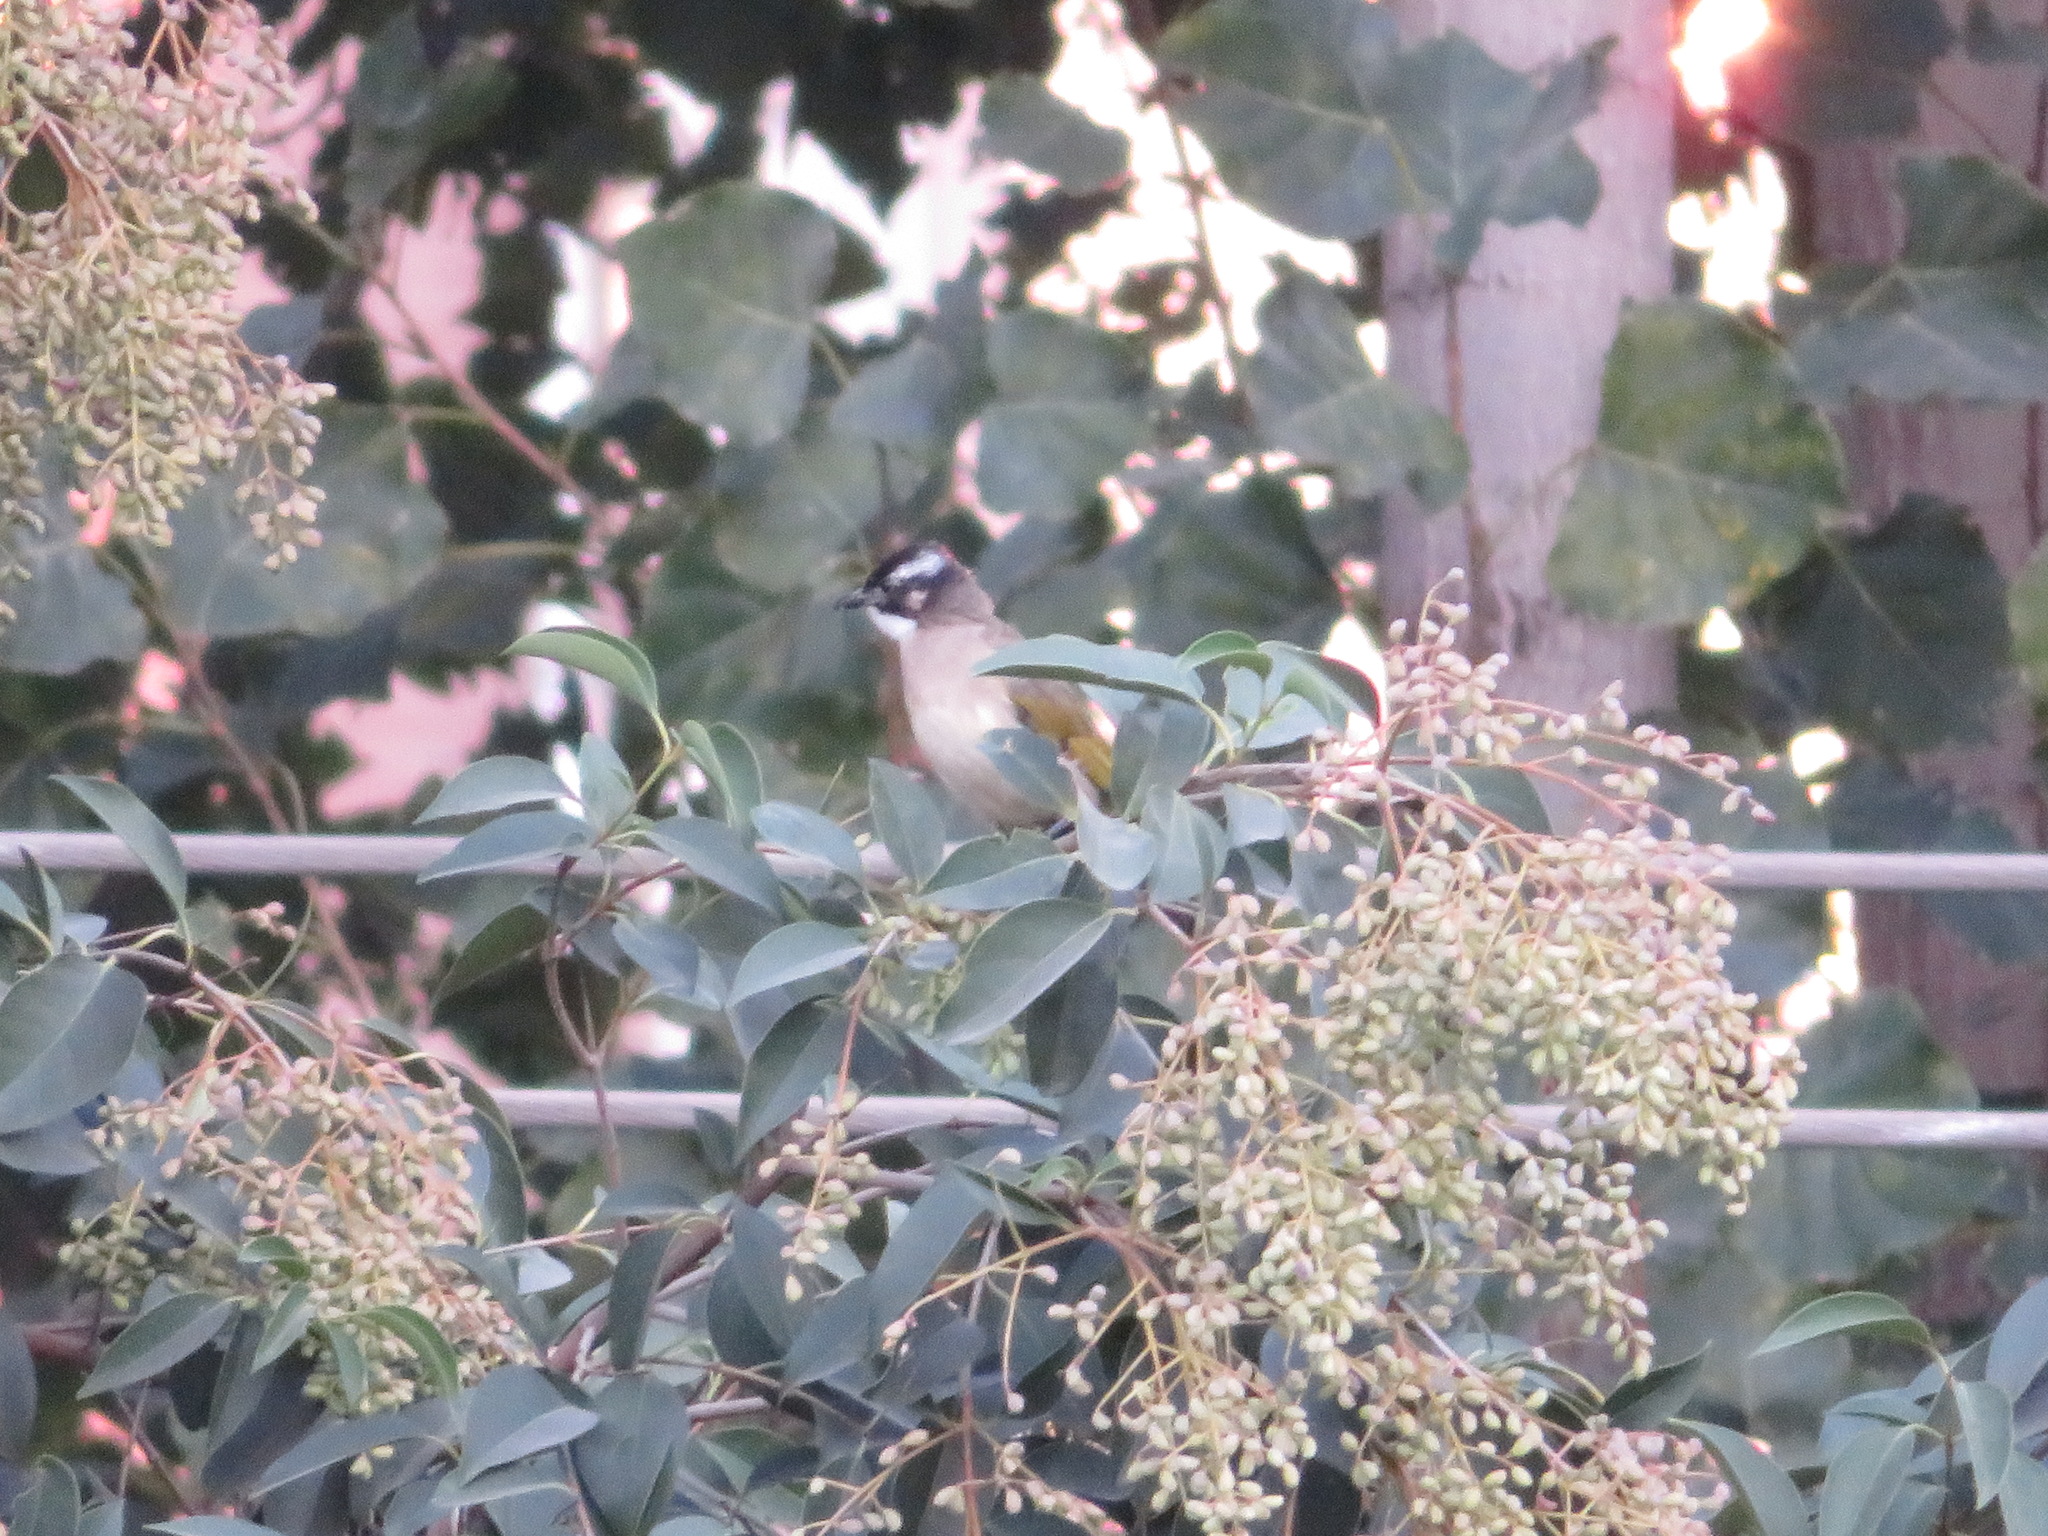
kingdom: Animalia
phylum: Chordata
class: Aves
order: Passeriformes
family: Pycnonotidae
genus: Pycnonotus
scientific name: Pycnonotus sinensis
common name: Light-vented bulbul
